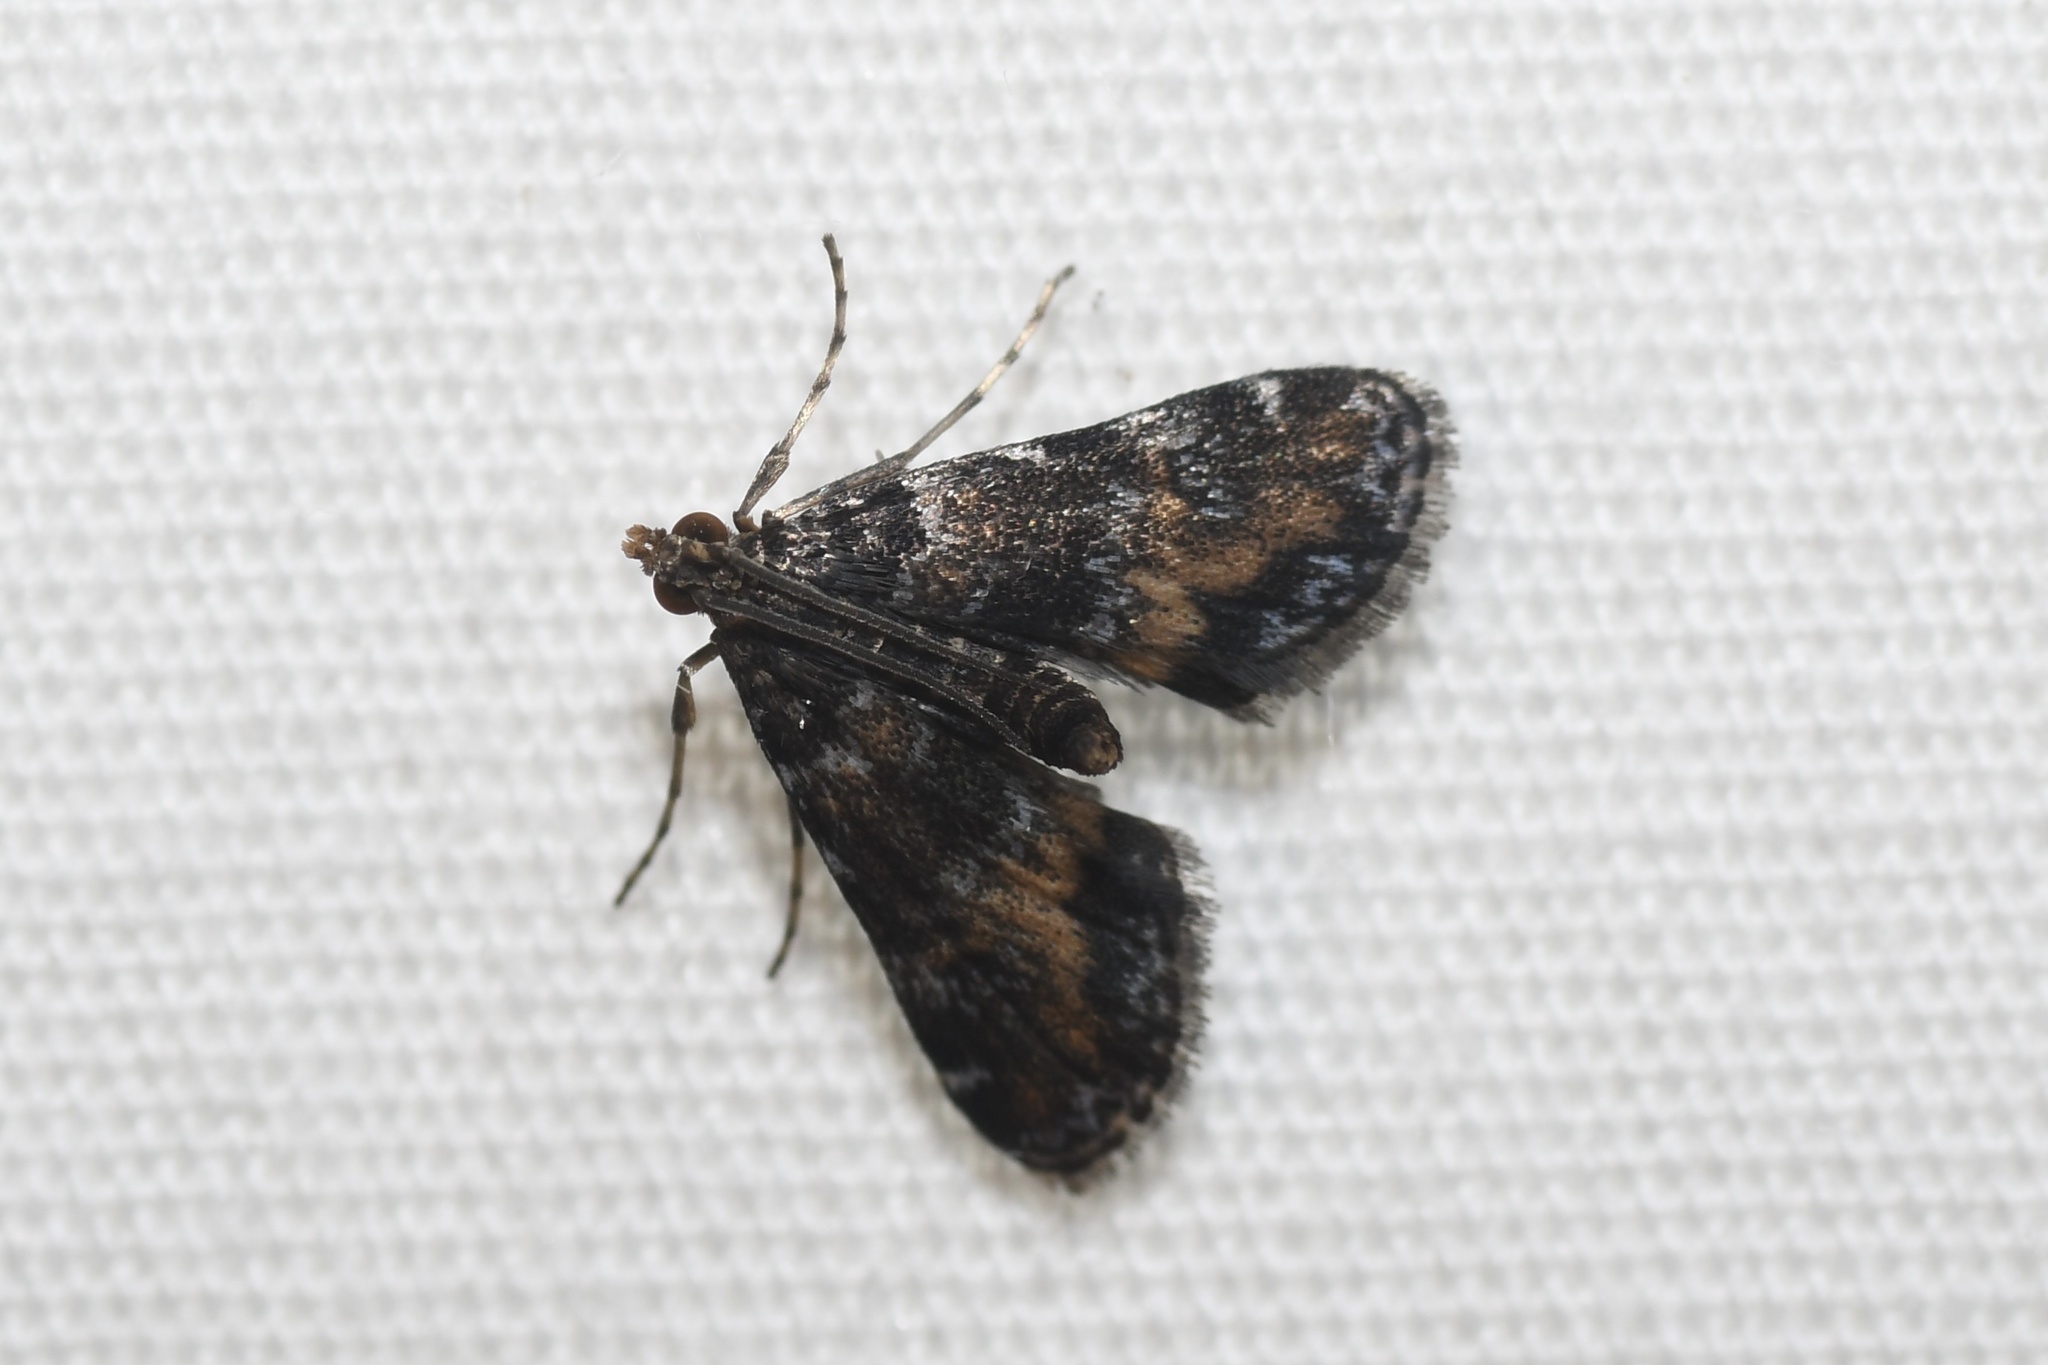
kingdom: Animalia
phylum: Arthropoda
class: Insecta
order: Lepidoptera
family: Crambidae
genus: Elophila
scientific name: Elophila obliteralis
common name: Waterlily leafcutter moth
